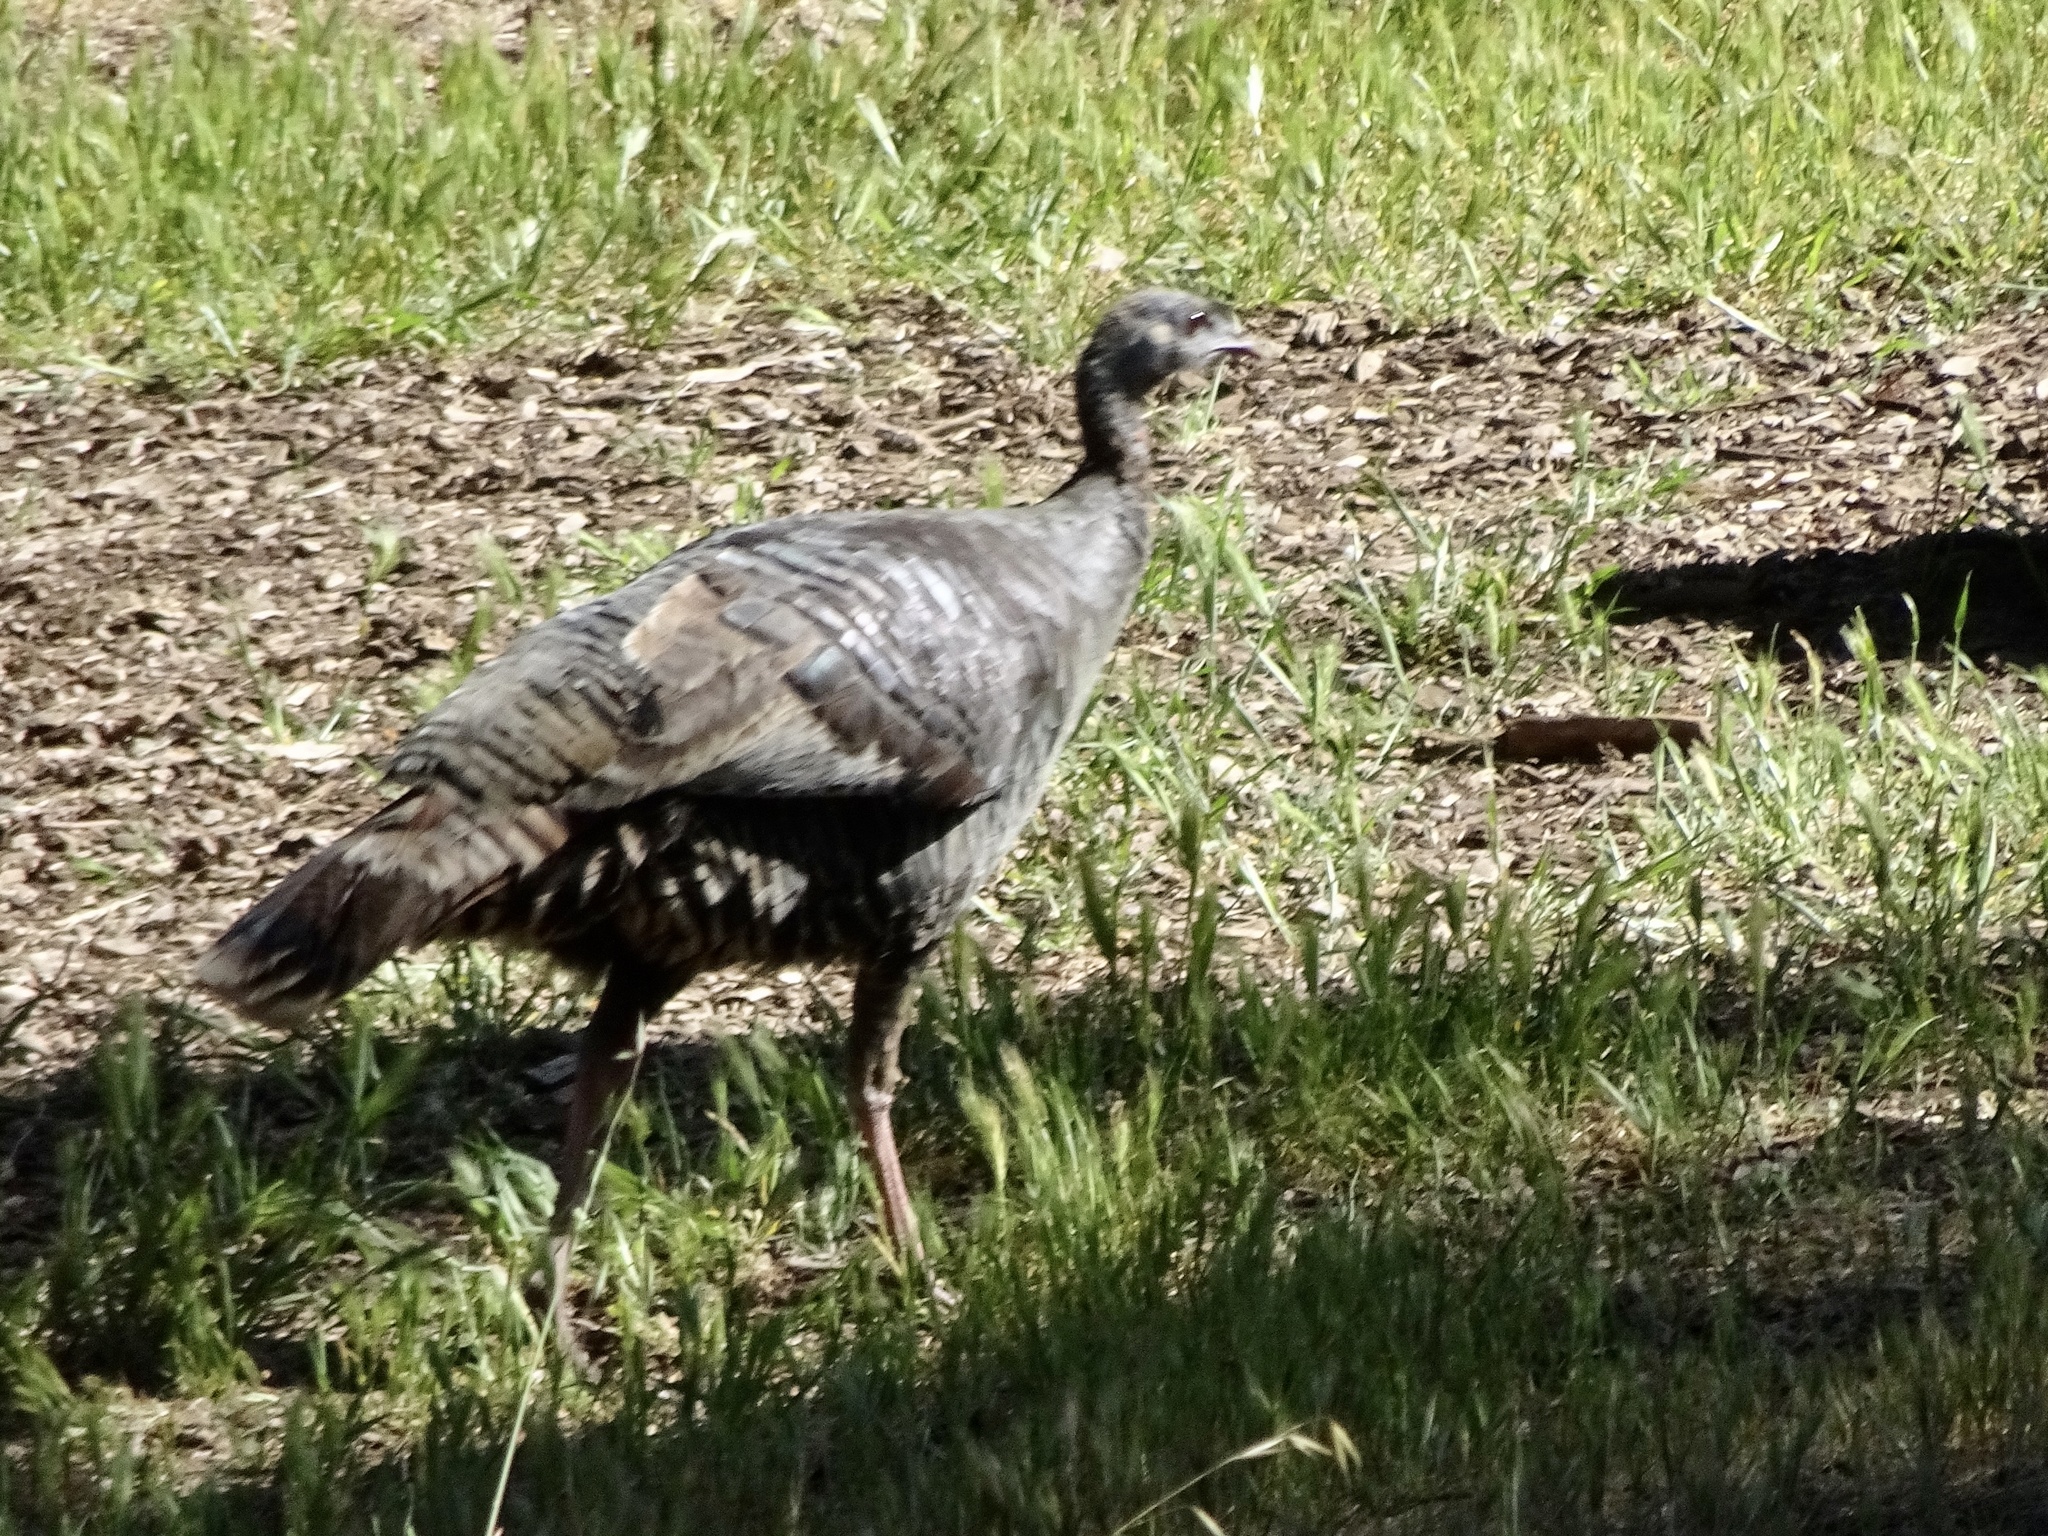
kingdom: Animalia
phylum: Chordata
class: Aves
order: Galliformes
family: Phasianidae
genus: Meleagris
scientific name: Meleagris gallopavo
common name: Wild turkey
